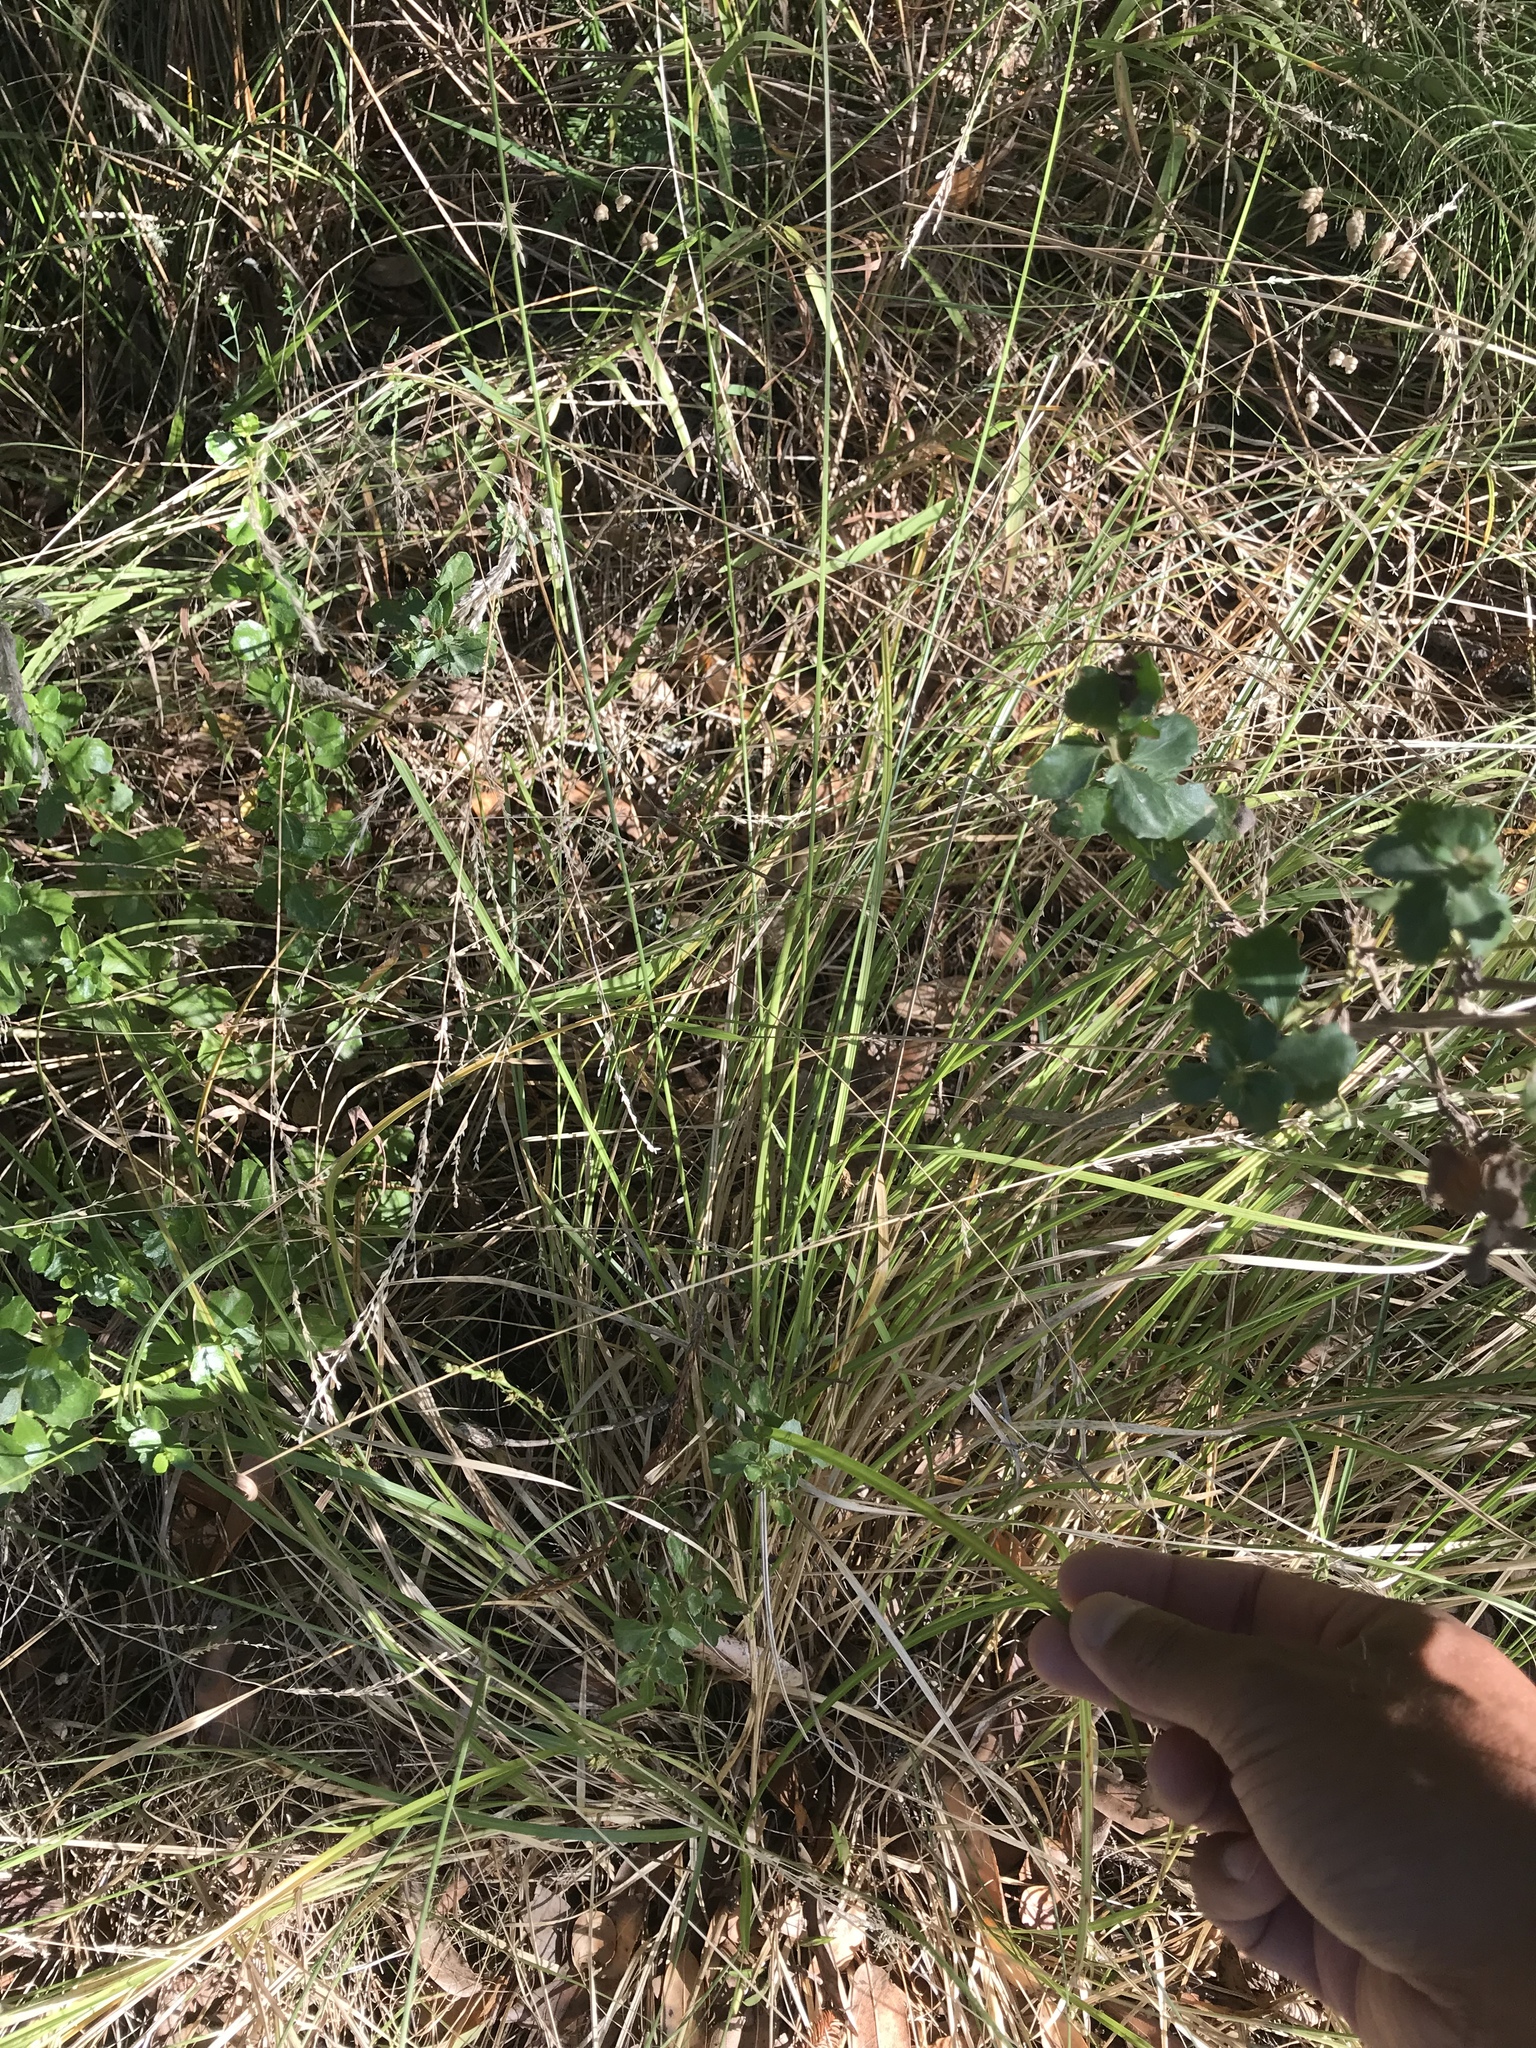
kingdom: Plantae
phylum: Tracheophyta
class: Liliopsida
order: Poales
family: Cyperaceae
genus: Carex
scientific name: Carex divulsa
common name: Grassland sedge
